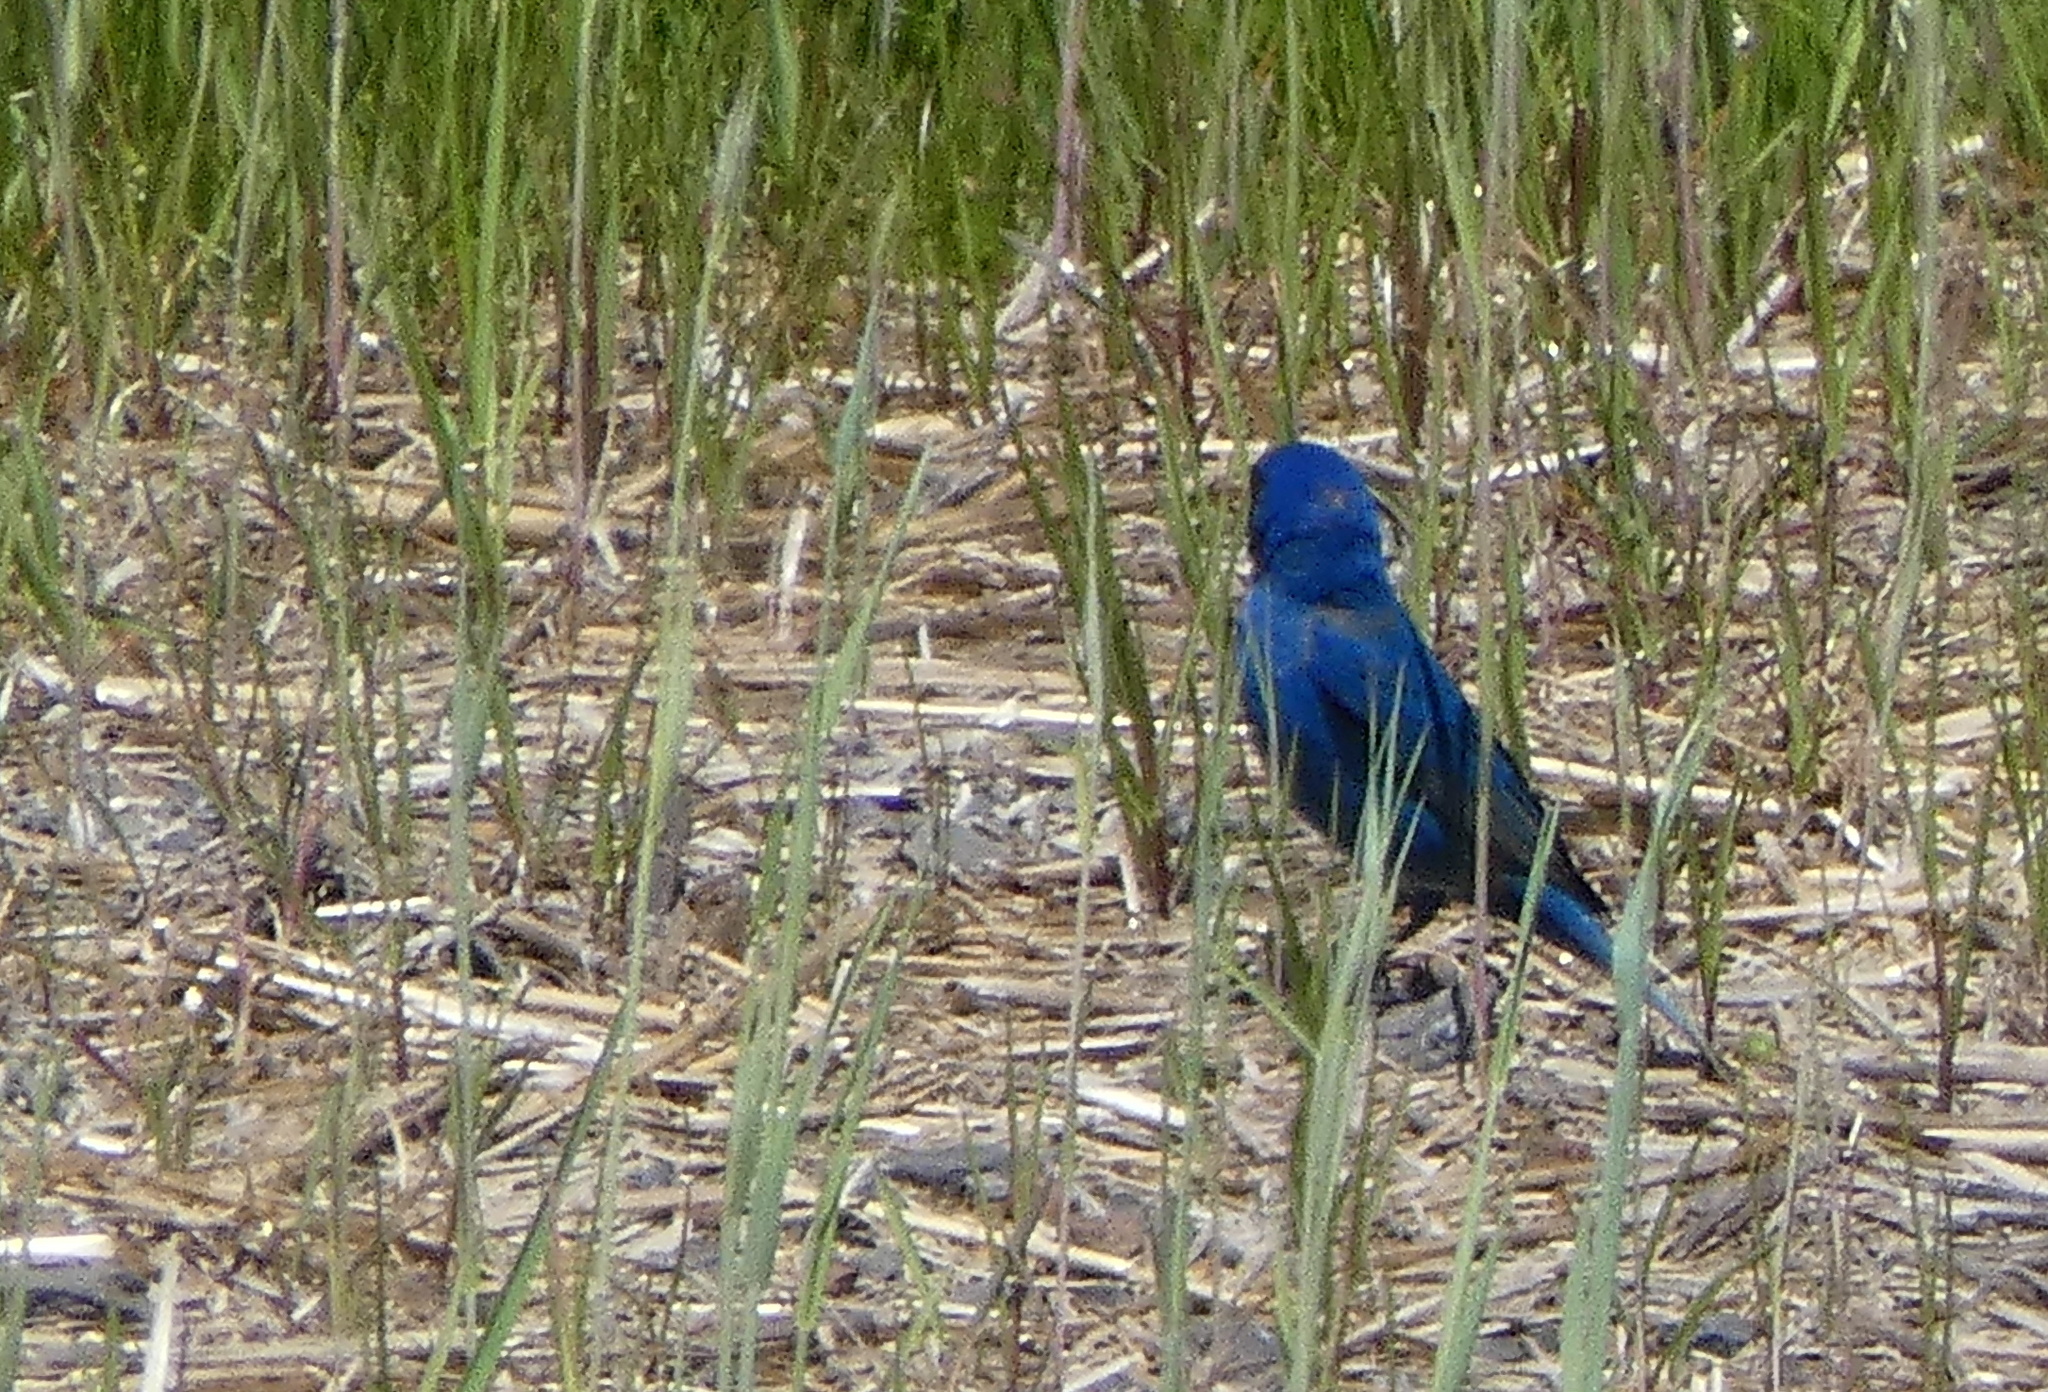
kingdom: Animalia
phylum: Chordata
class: Aves
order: Passeriformes
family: Cardinalidae
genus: Passerina
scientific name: Passerina cyanea
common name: Indigo bunting
